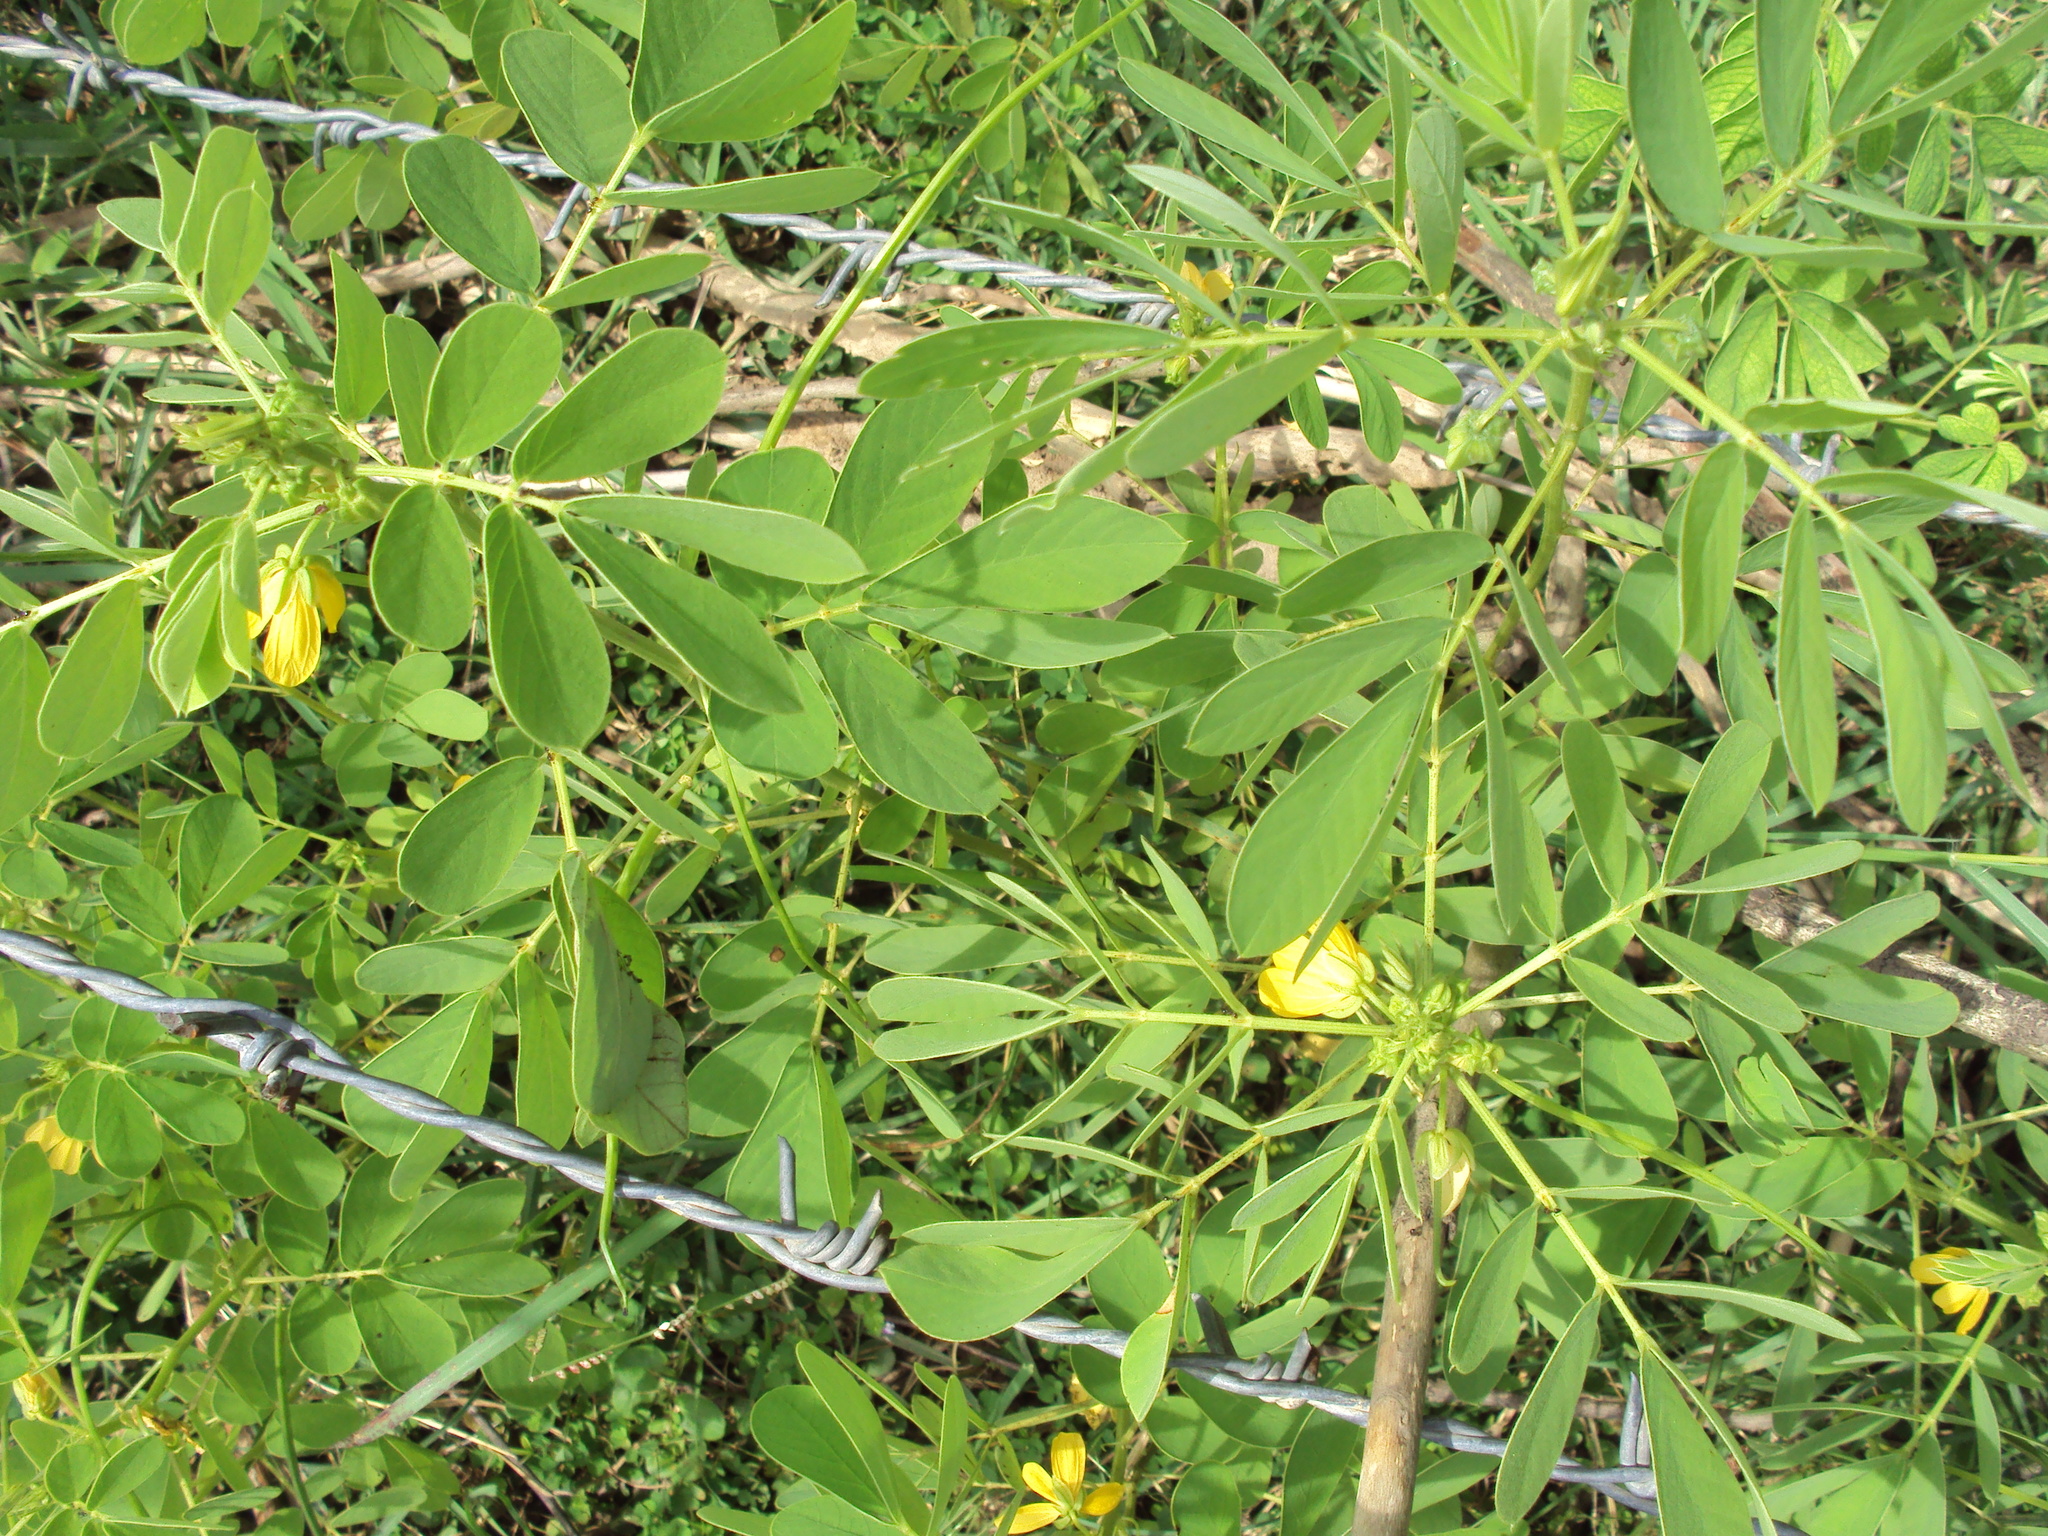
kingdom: Plantae
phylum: Tracheophyta
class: Magnoliopsida
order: Fabales
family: Fabaceae
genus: Senna
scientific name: Senna tora
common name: Sickle senna
